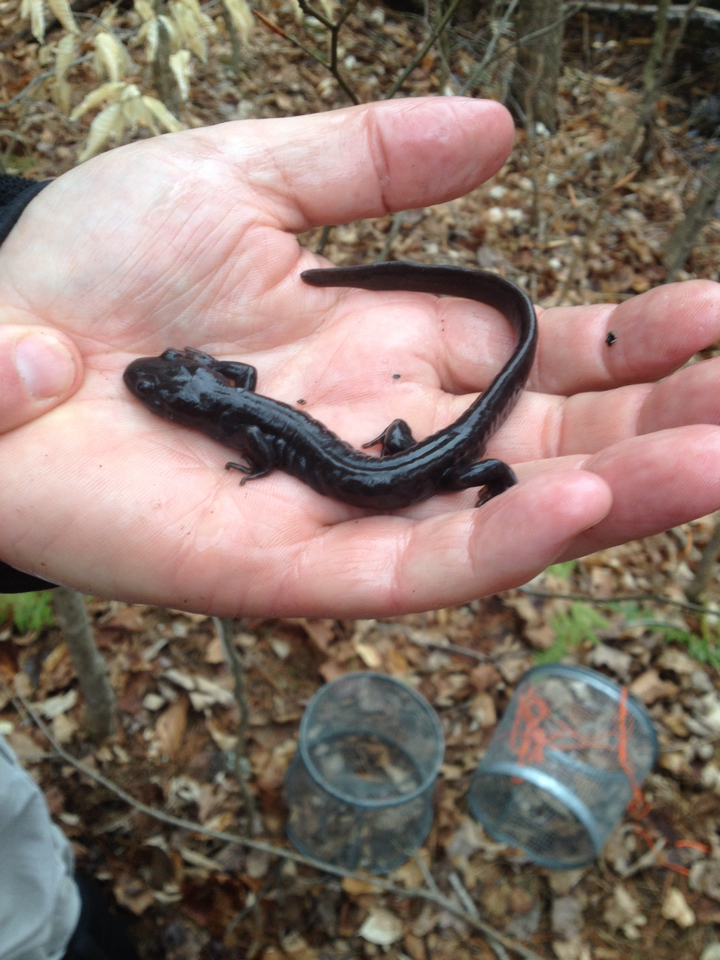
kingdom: Animalia
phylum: Chordata
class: Amphibia
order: Caudata
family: Ambystomatidae
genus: Ambystoma
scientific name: Ambystoma jeffersonianum
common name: Jefferson salamander
